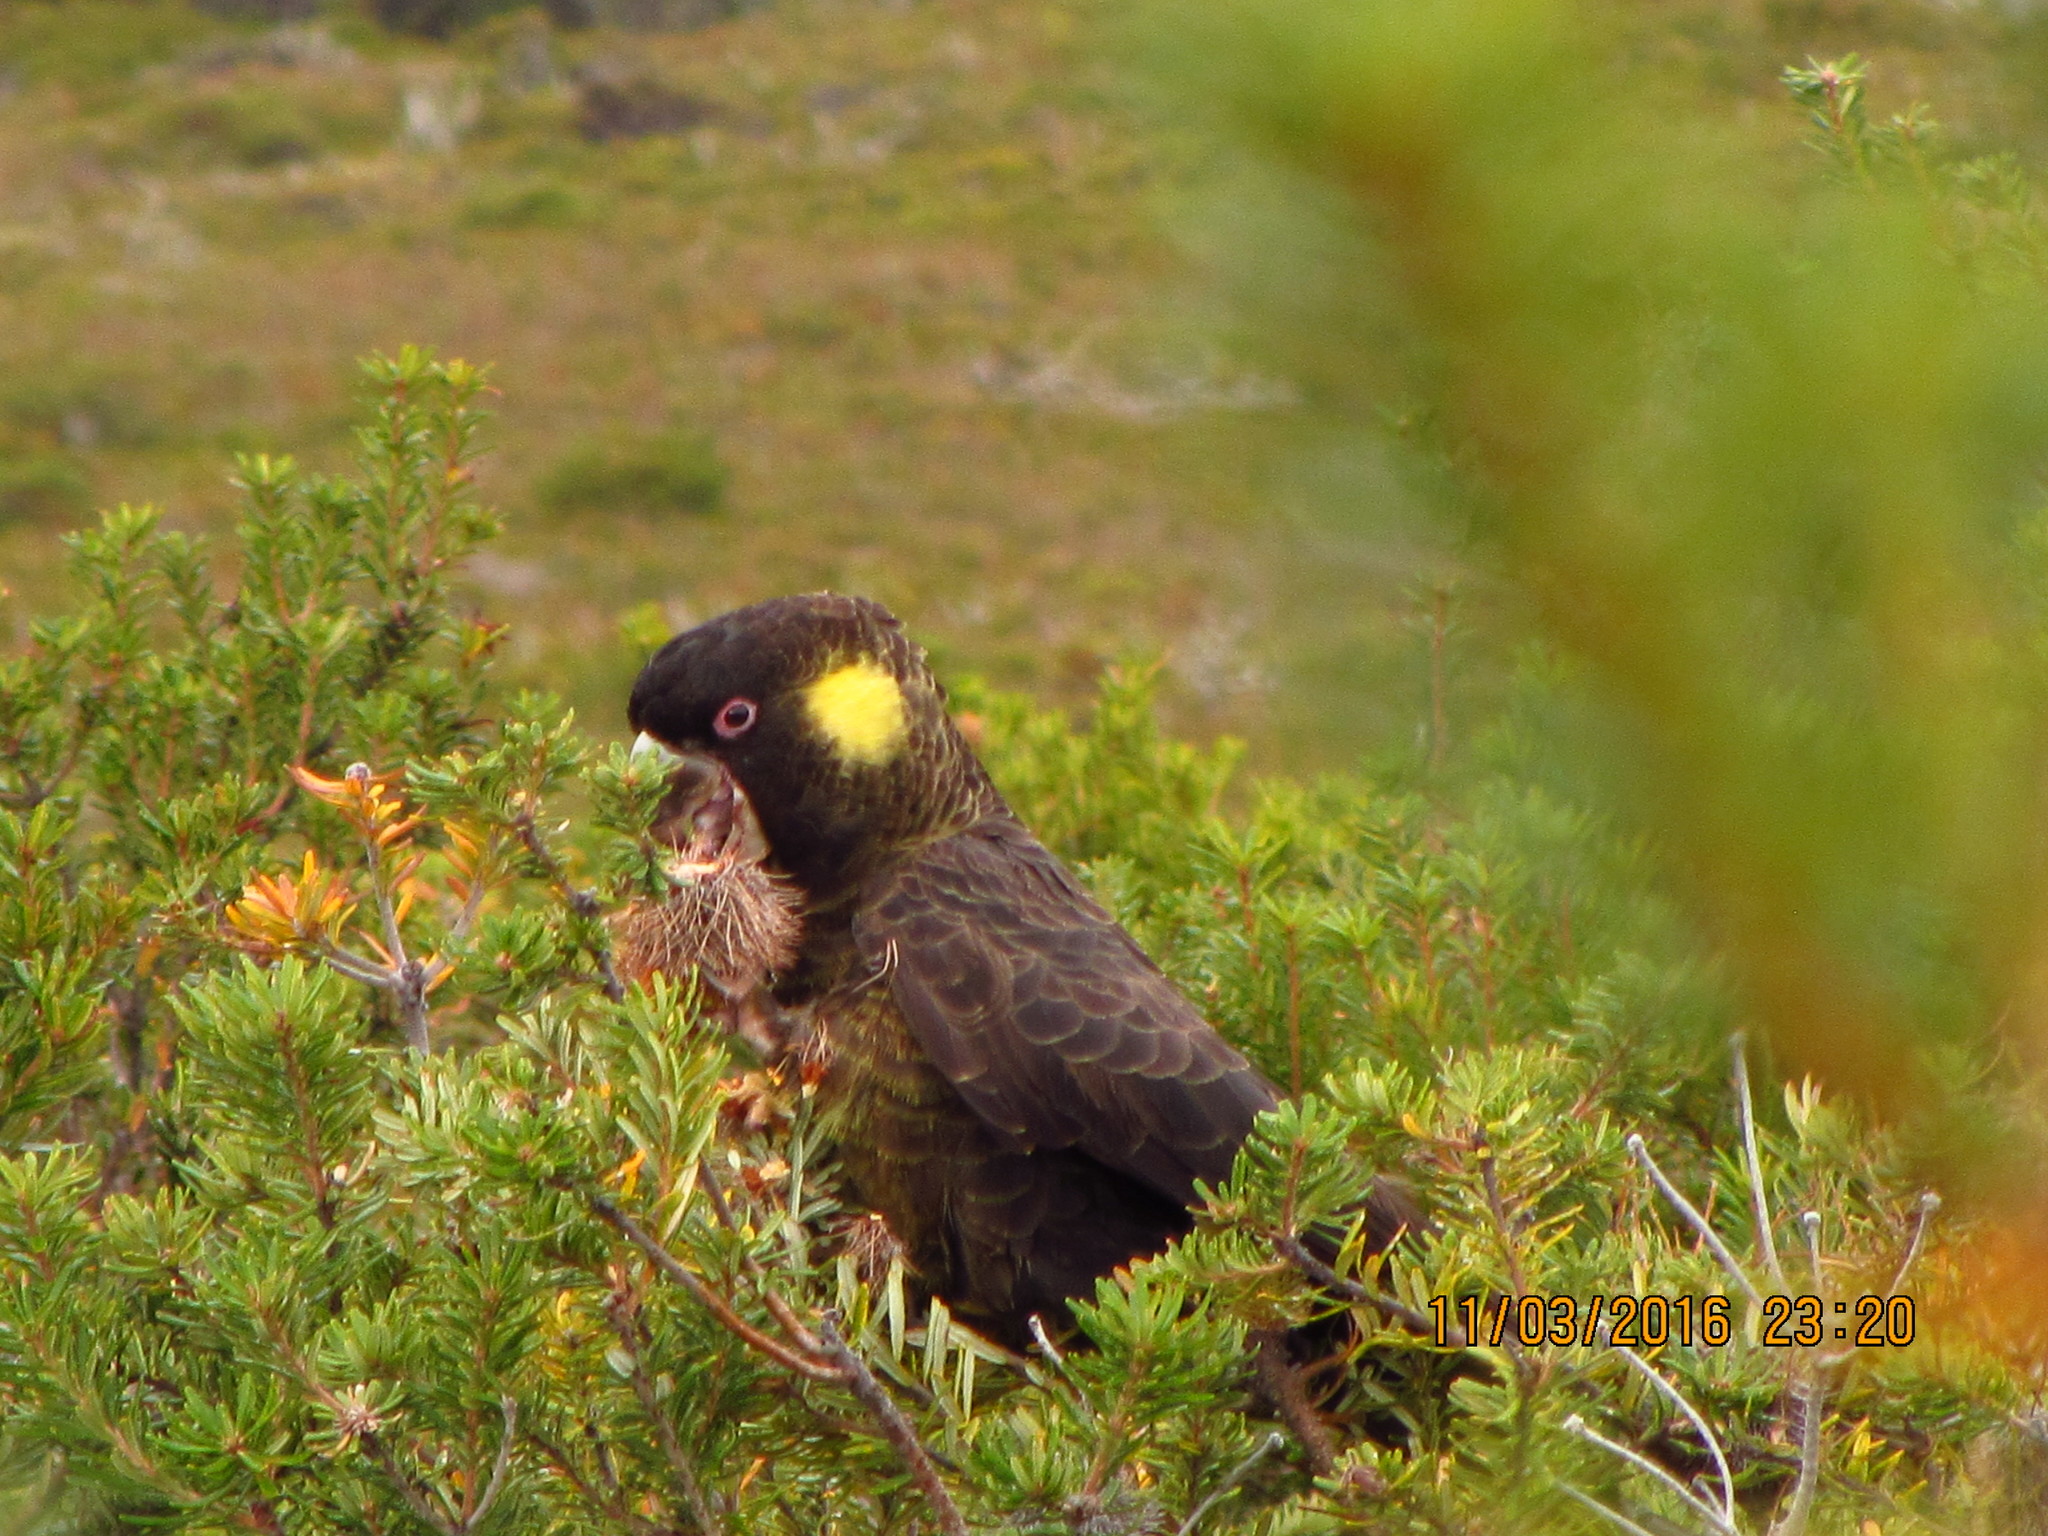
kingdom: Animalia
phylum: Chordata
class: Aves
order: Psittaciformes
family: Cacatuidae
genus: Zanda
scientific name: Zanda funerea
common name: Yellow-tailed black-cockatoo
